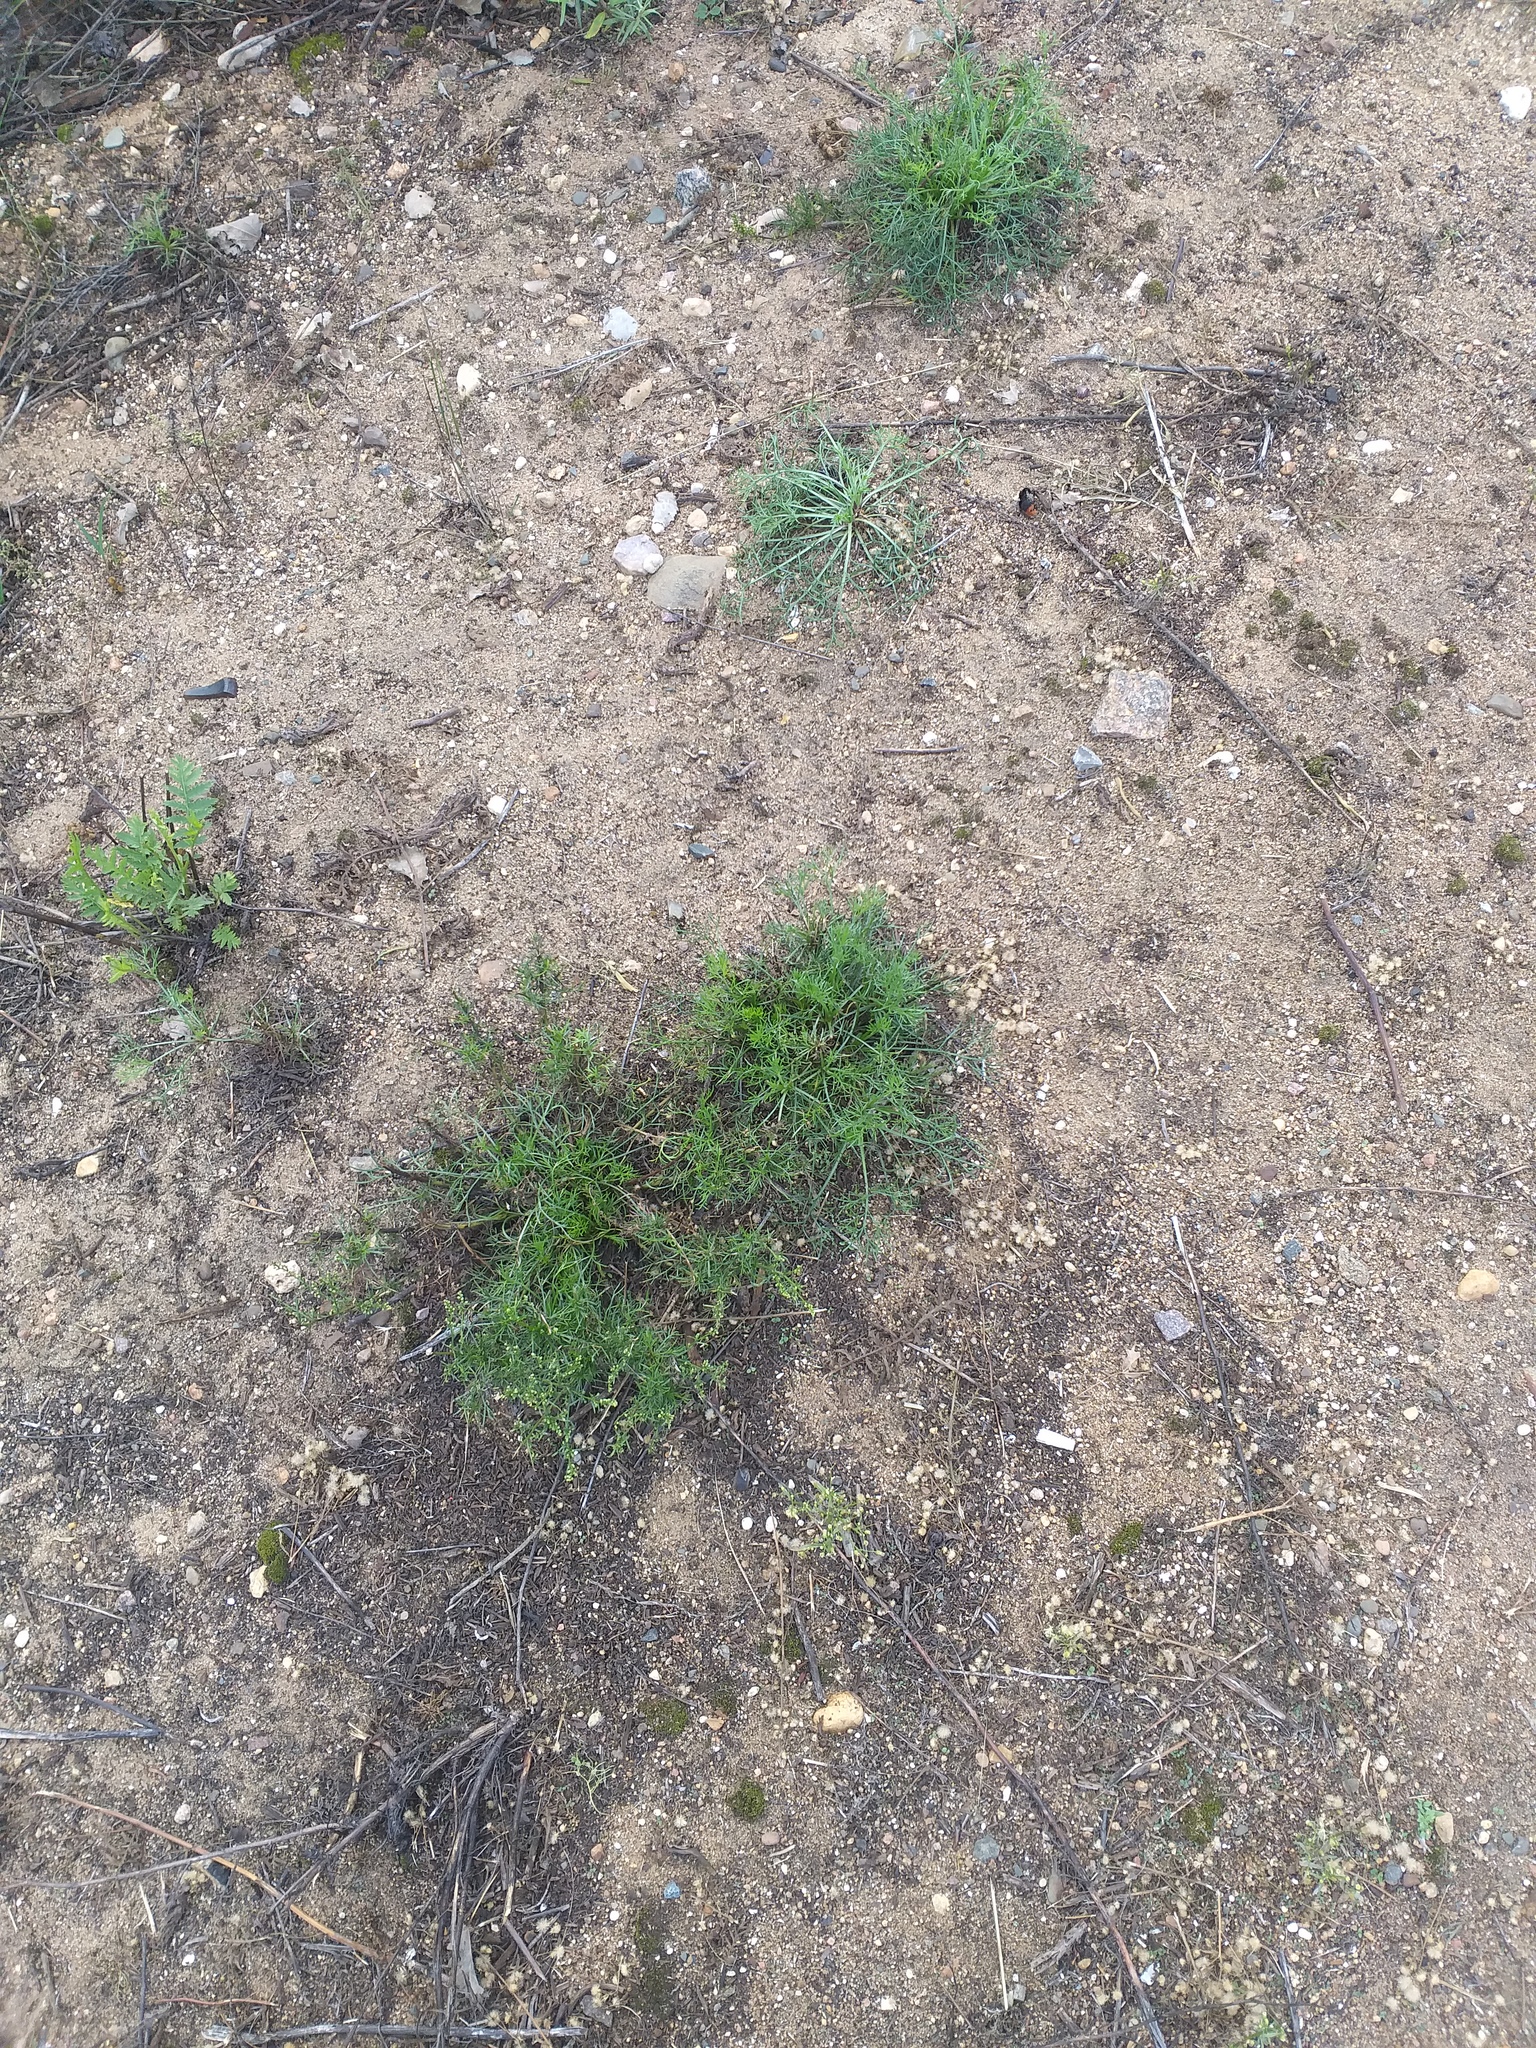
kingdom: Plantae
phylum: Tracheophyta
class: Magnoliopsida
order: Asterales
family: Asteraceae
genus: Artemisia
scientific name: Artemisia campestris
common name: Field wormwood
